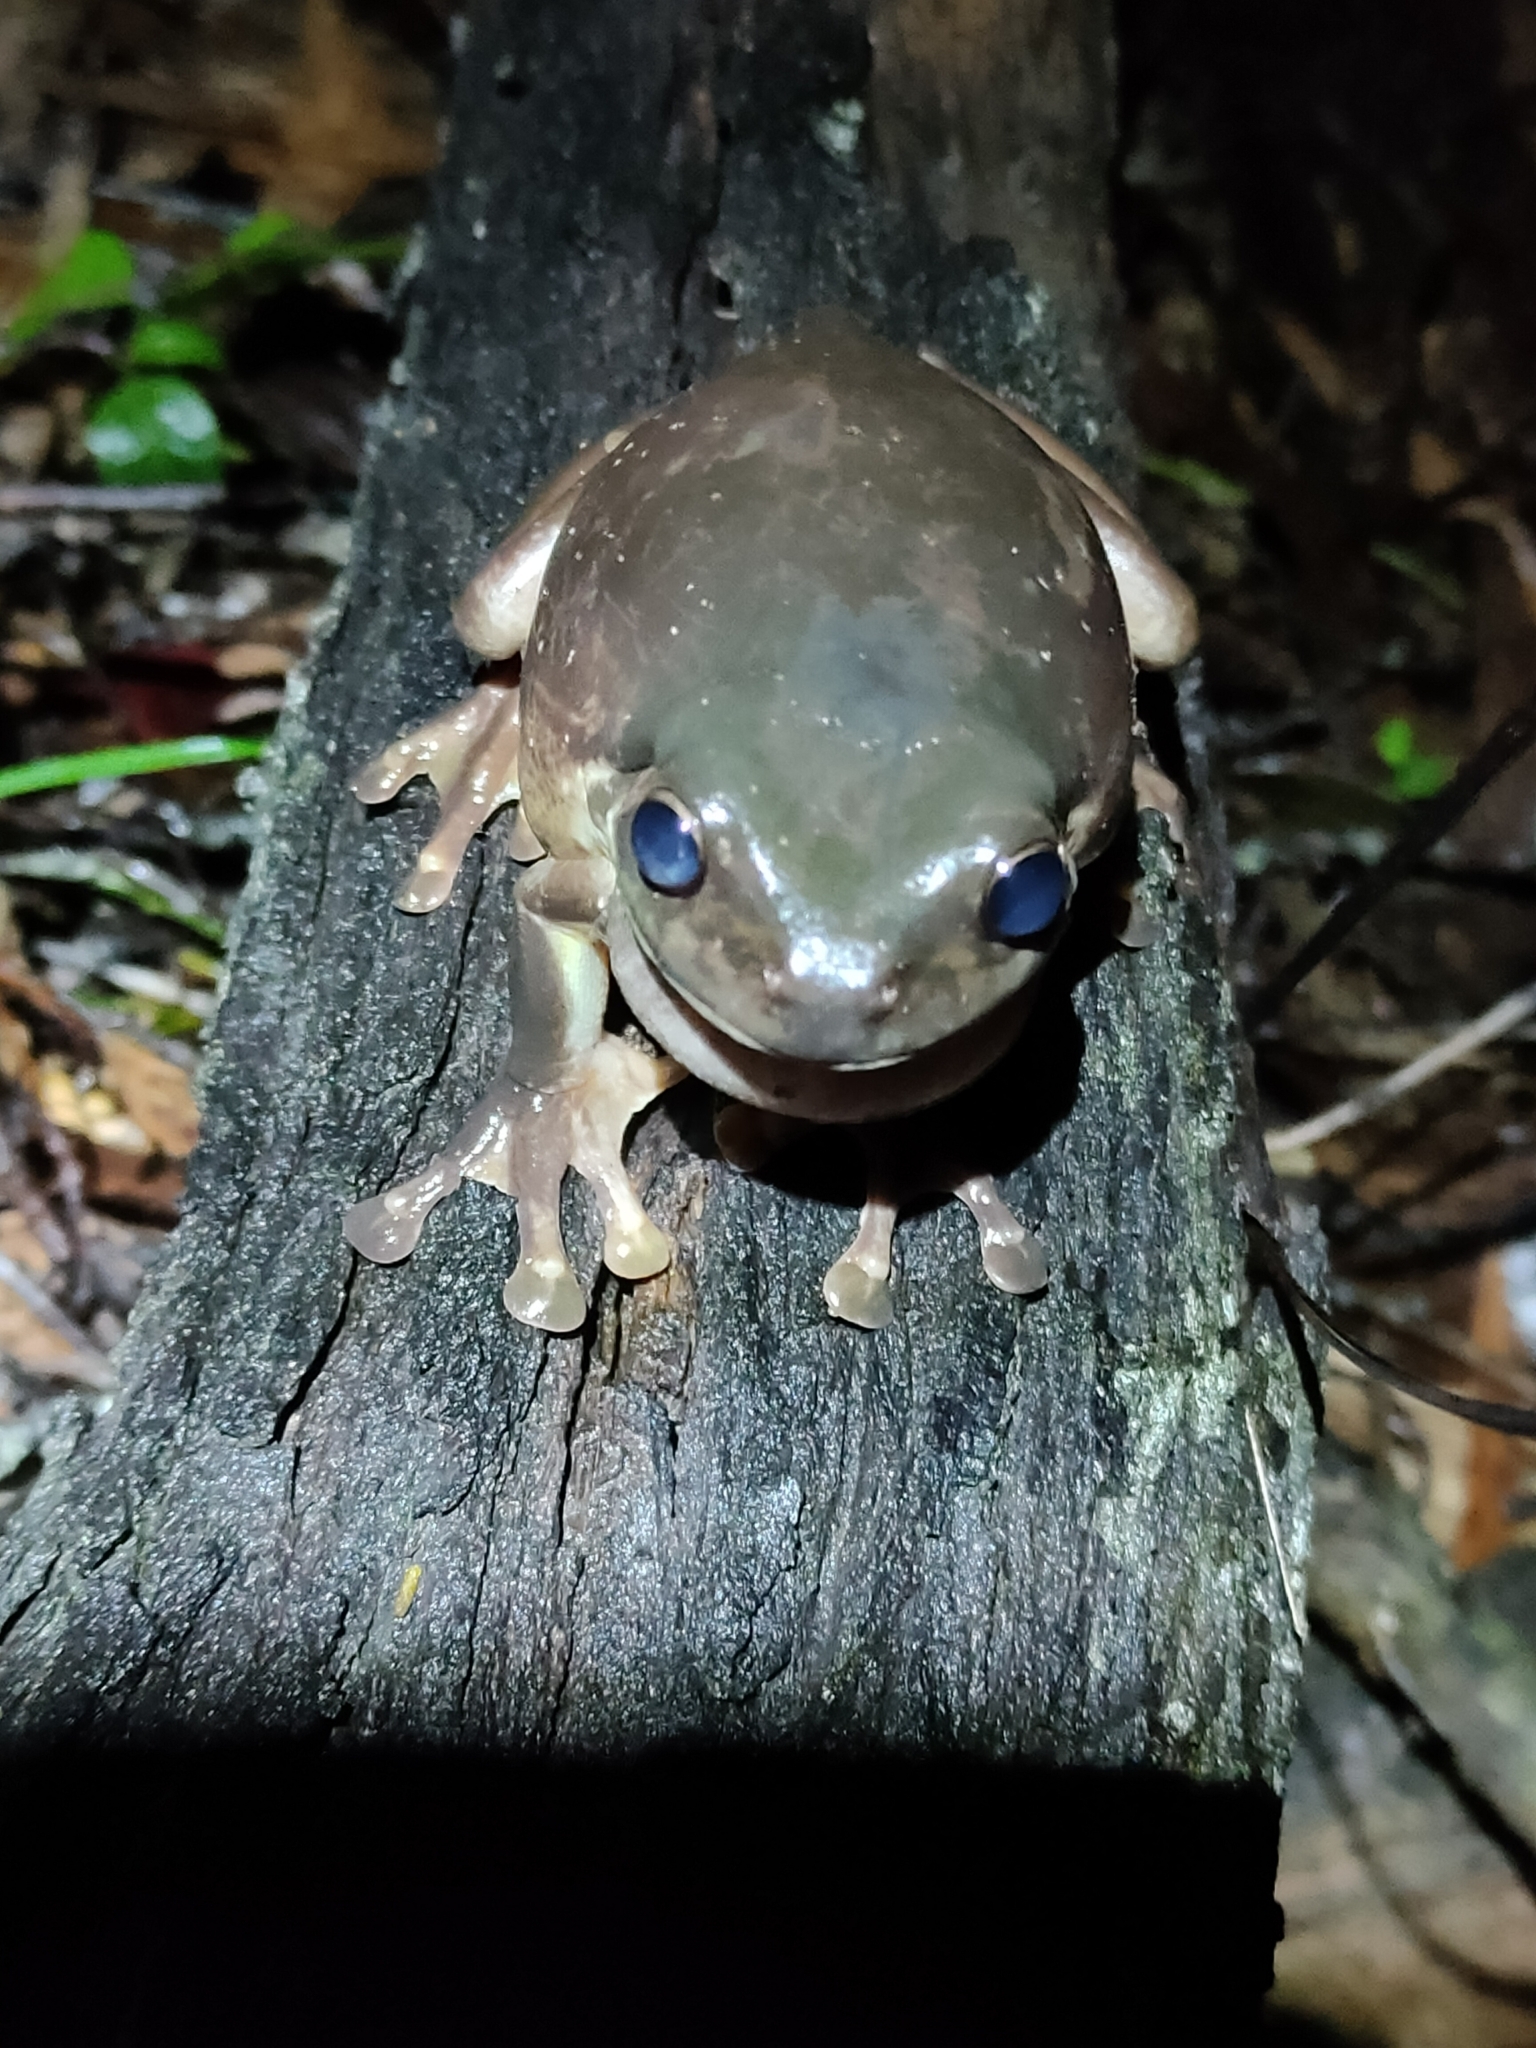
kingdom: Animalia
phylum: Chordata
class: Amphibia
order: Anura
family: Pelodryadidae
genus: Ranoidea
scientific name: Ranoidea caerulea
